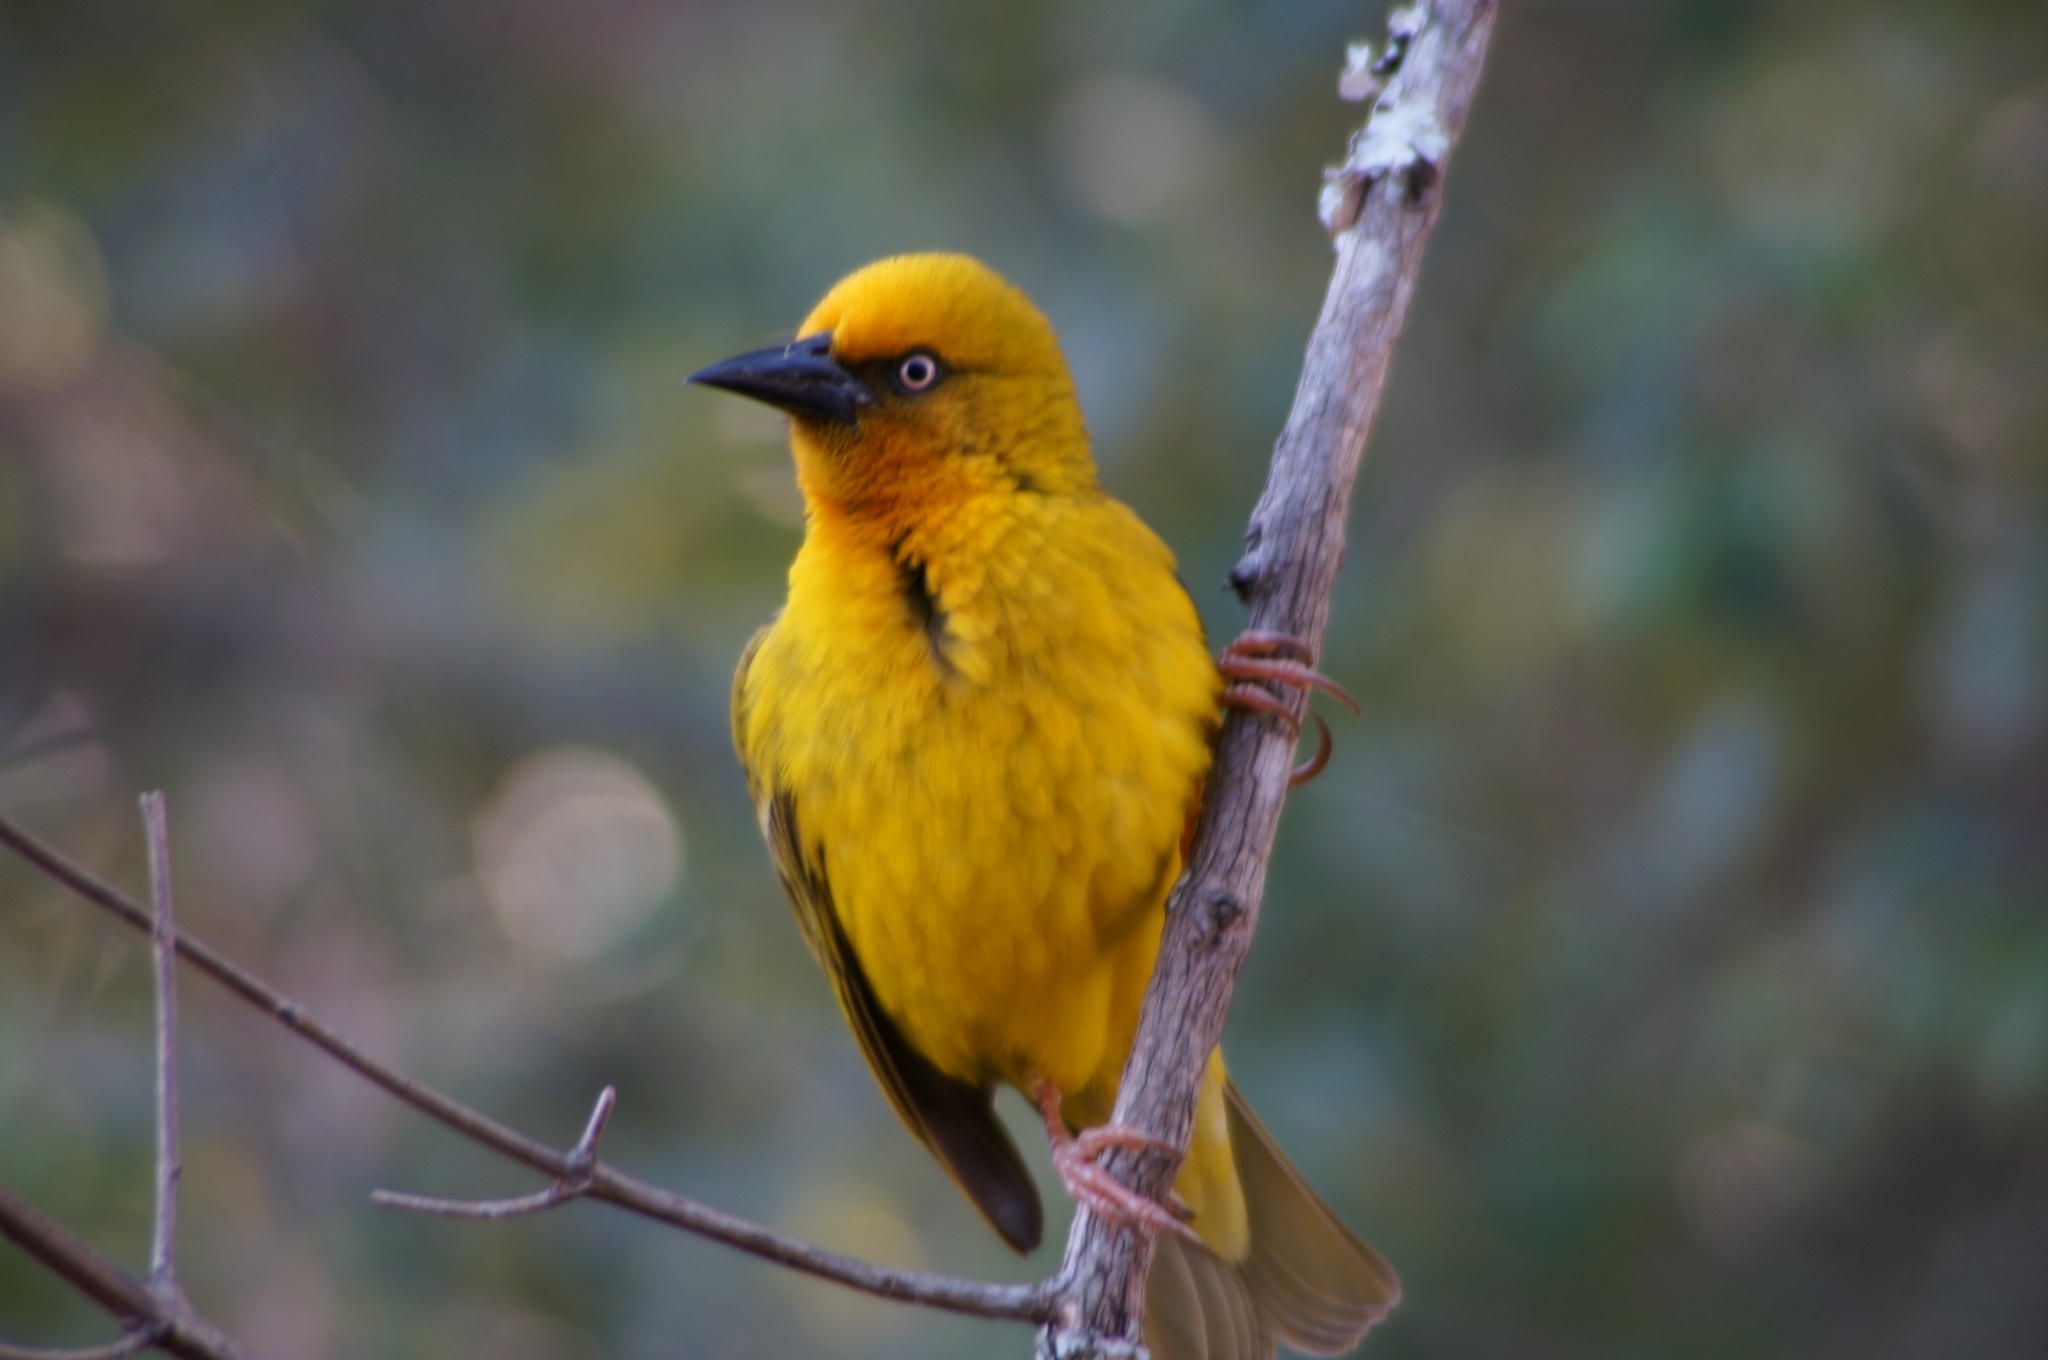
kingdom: Animalia
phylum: Chordata
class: Aves
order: Passeriformes
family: Ploceidae
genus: Ploceus
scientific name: Ploceus capensis
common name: Cape weaver
